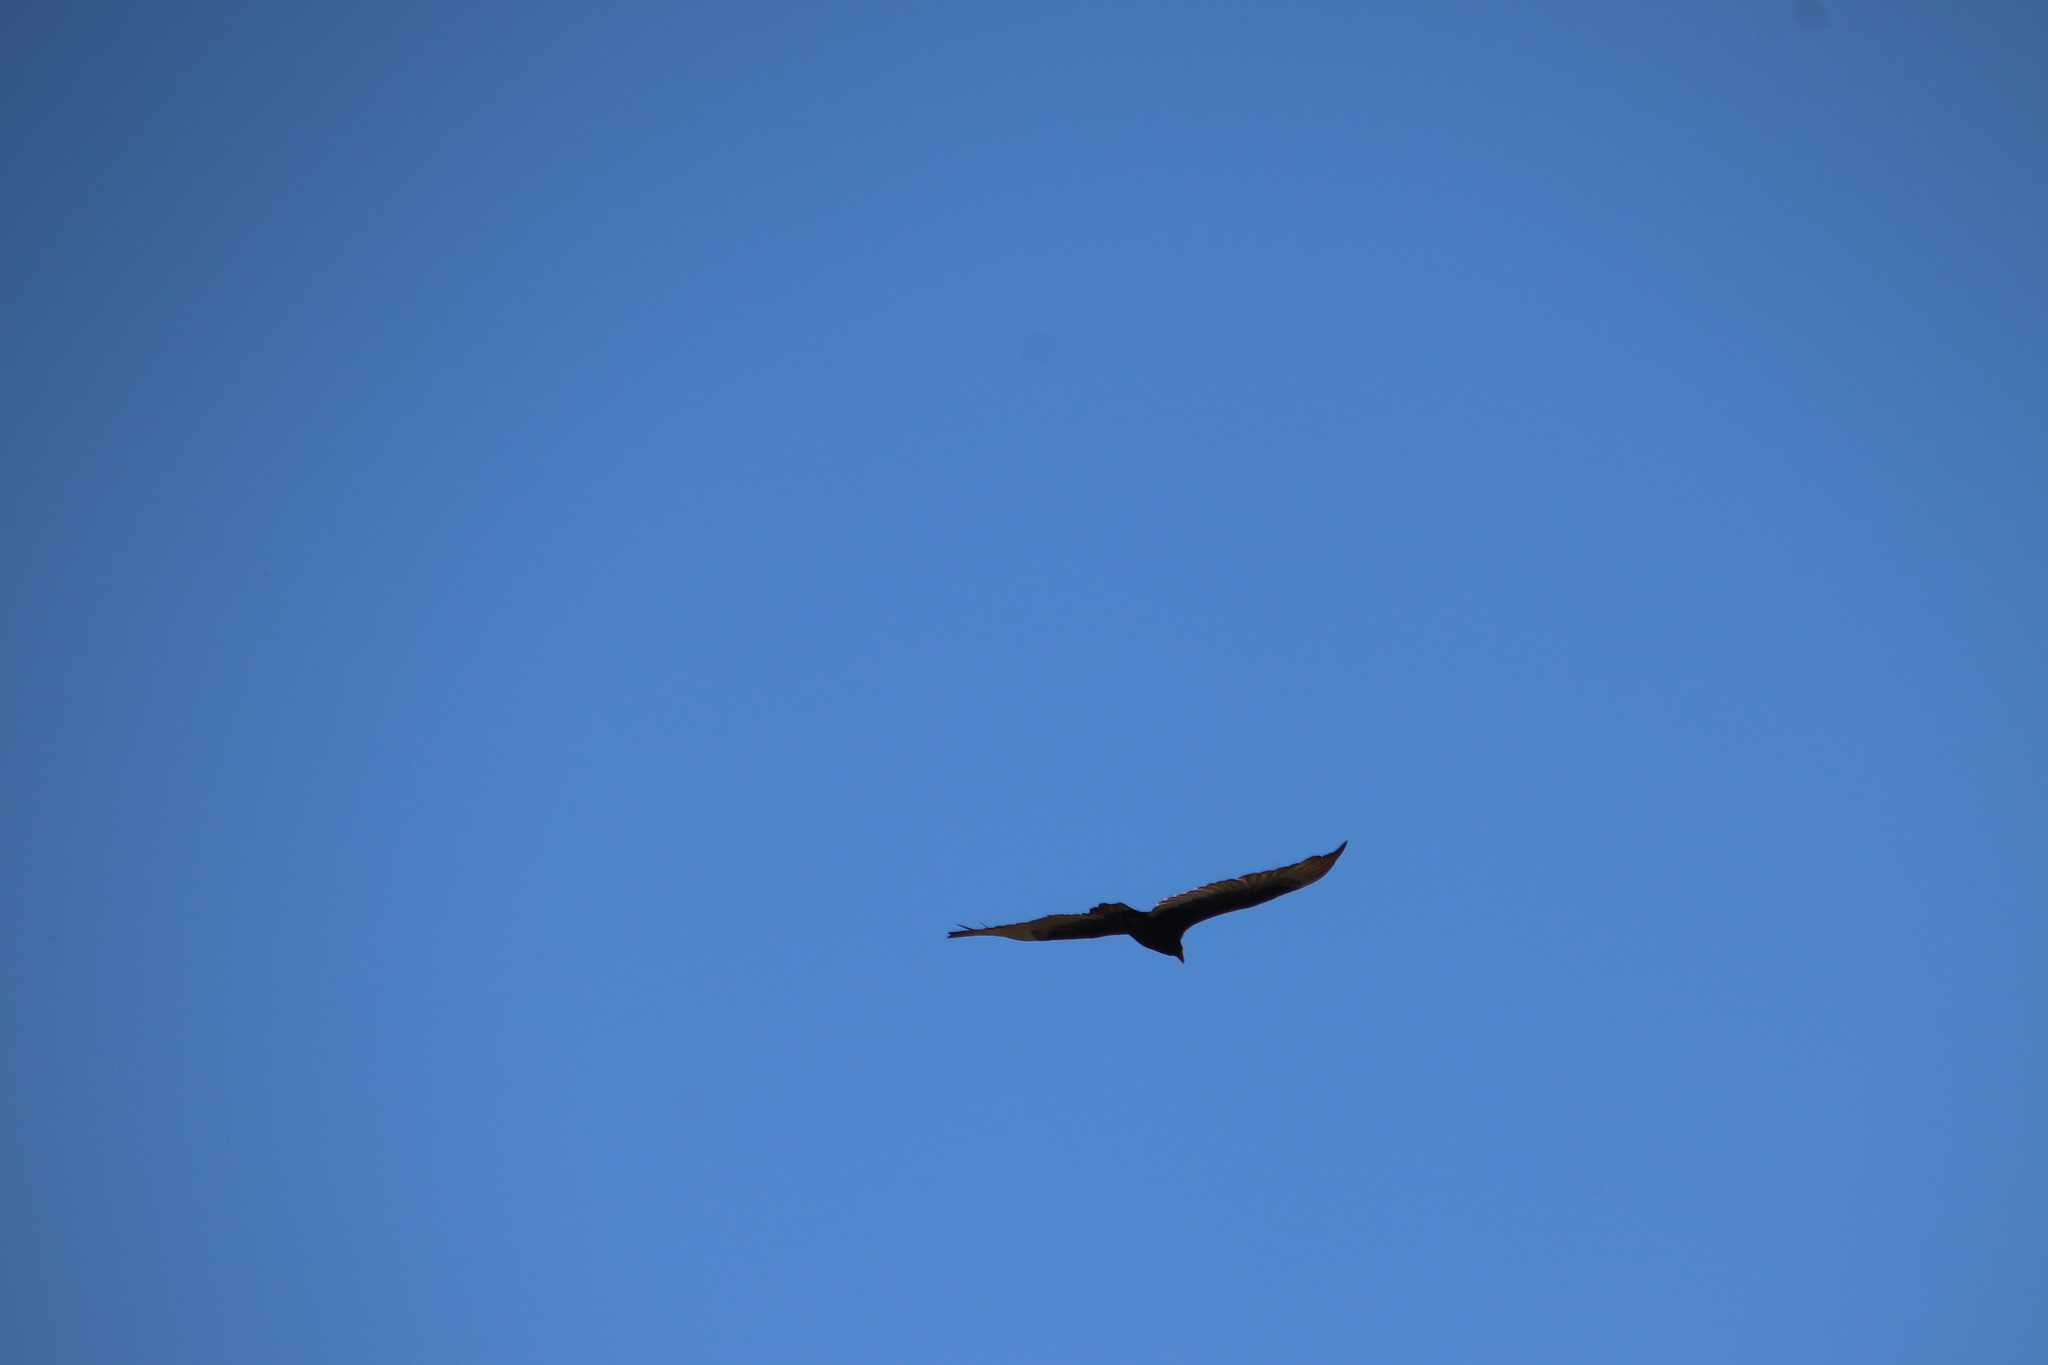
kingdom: Animalia
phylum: Chordata
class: Aves
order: Accipitriformes
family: Cathartidae
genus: Cathartes
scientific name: Cathartes aura
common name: Turkey vulture
